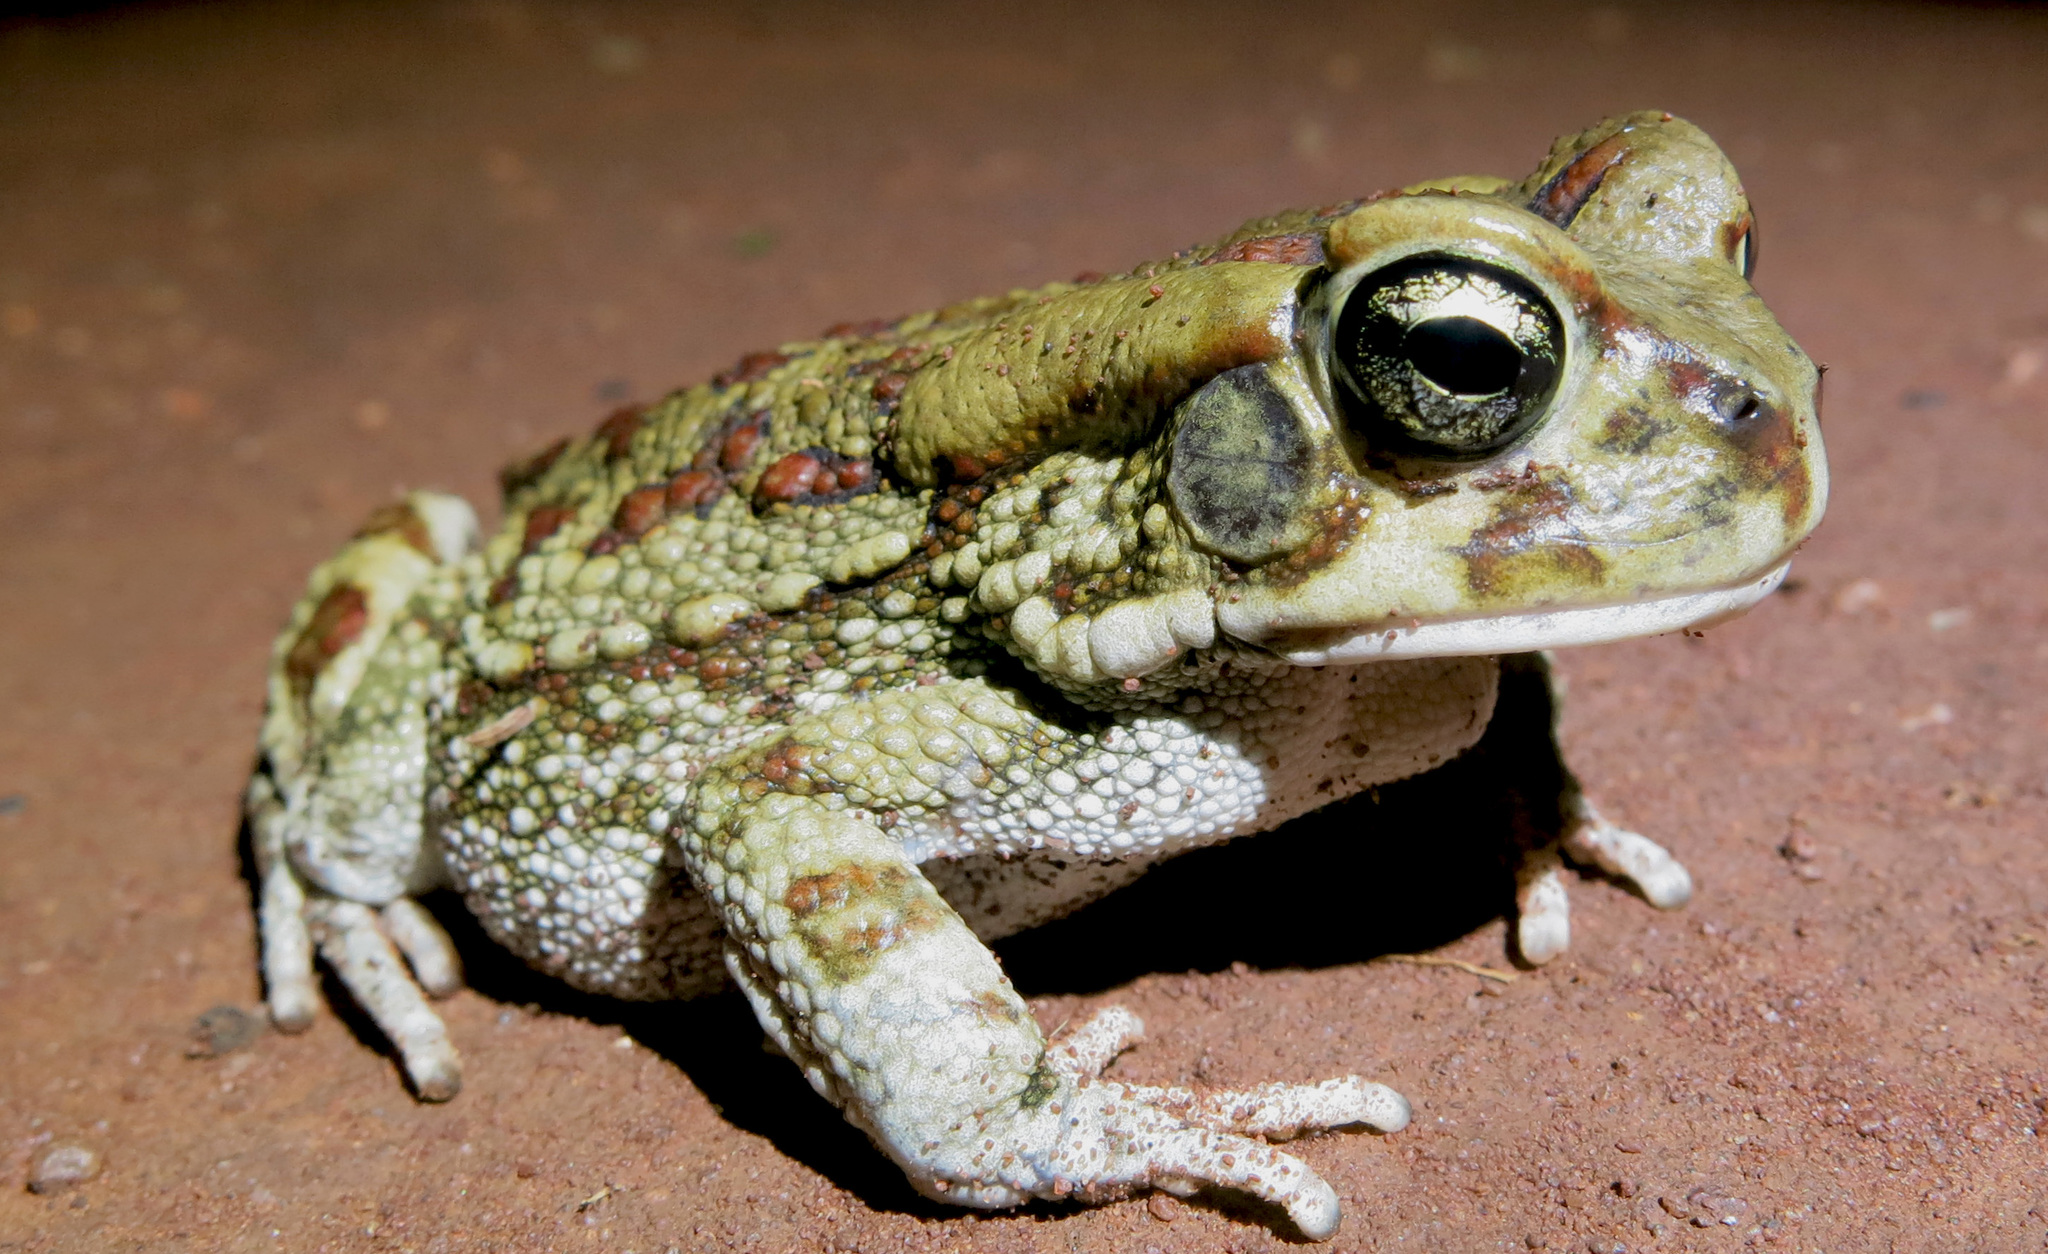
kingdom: Animalia
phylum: Chordata
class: Amphibia
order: Anura
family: Bufonidae
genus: Sclerophrys
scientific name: Sclerophrys garmani
